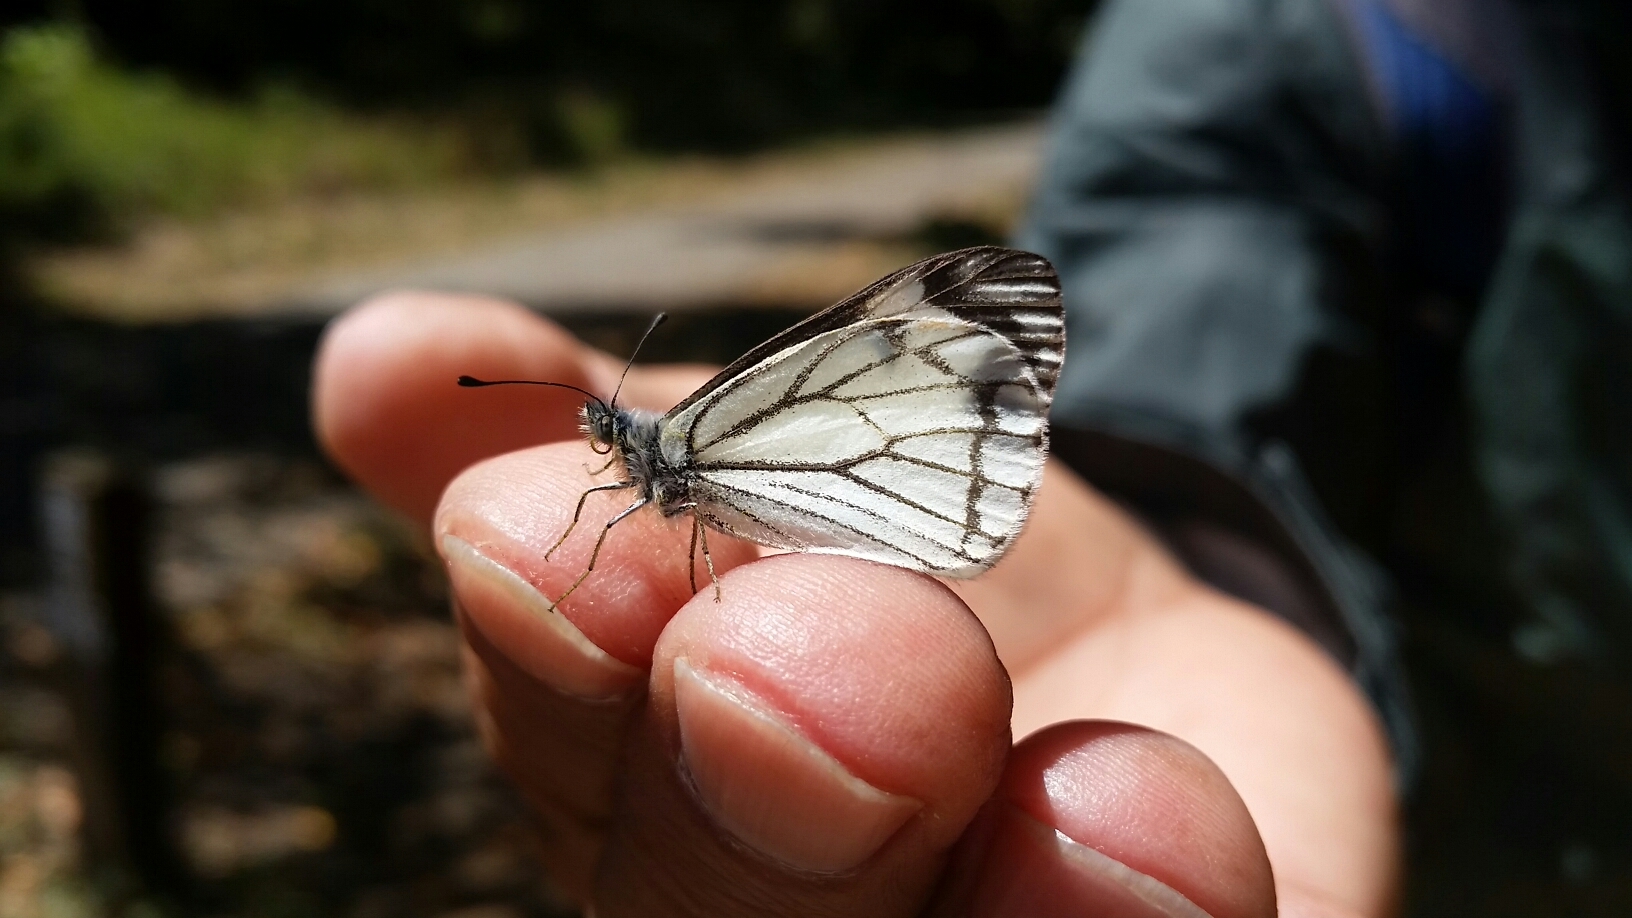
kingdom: Animalia
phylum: Arthropoda
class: Insecta
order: Lepidoptera
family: Pieridae
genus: Neophasia
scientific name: Neophasia menapia
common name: Pine white
